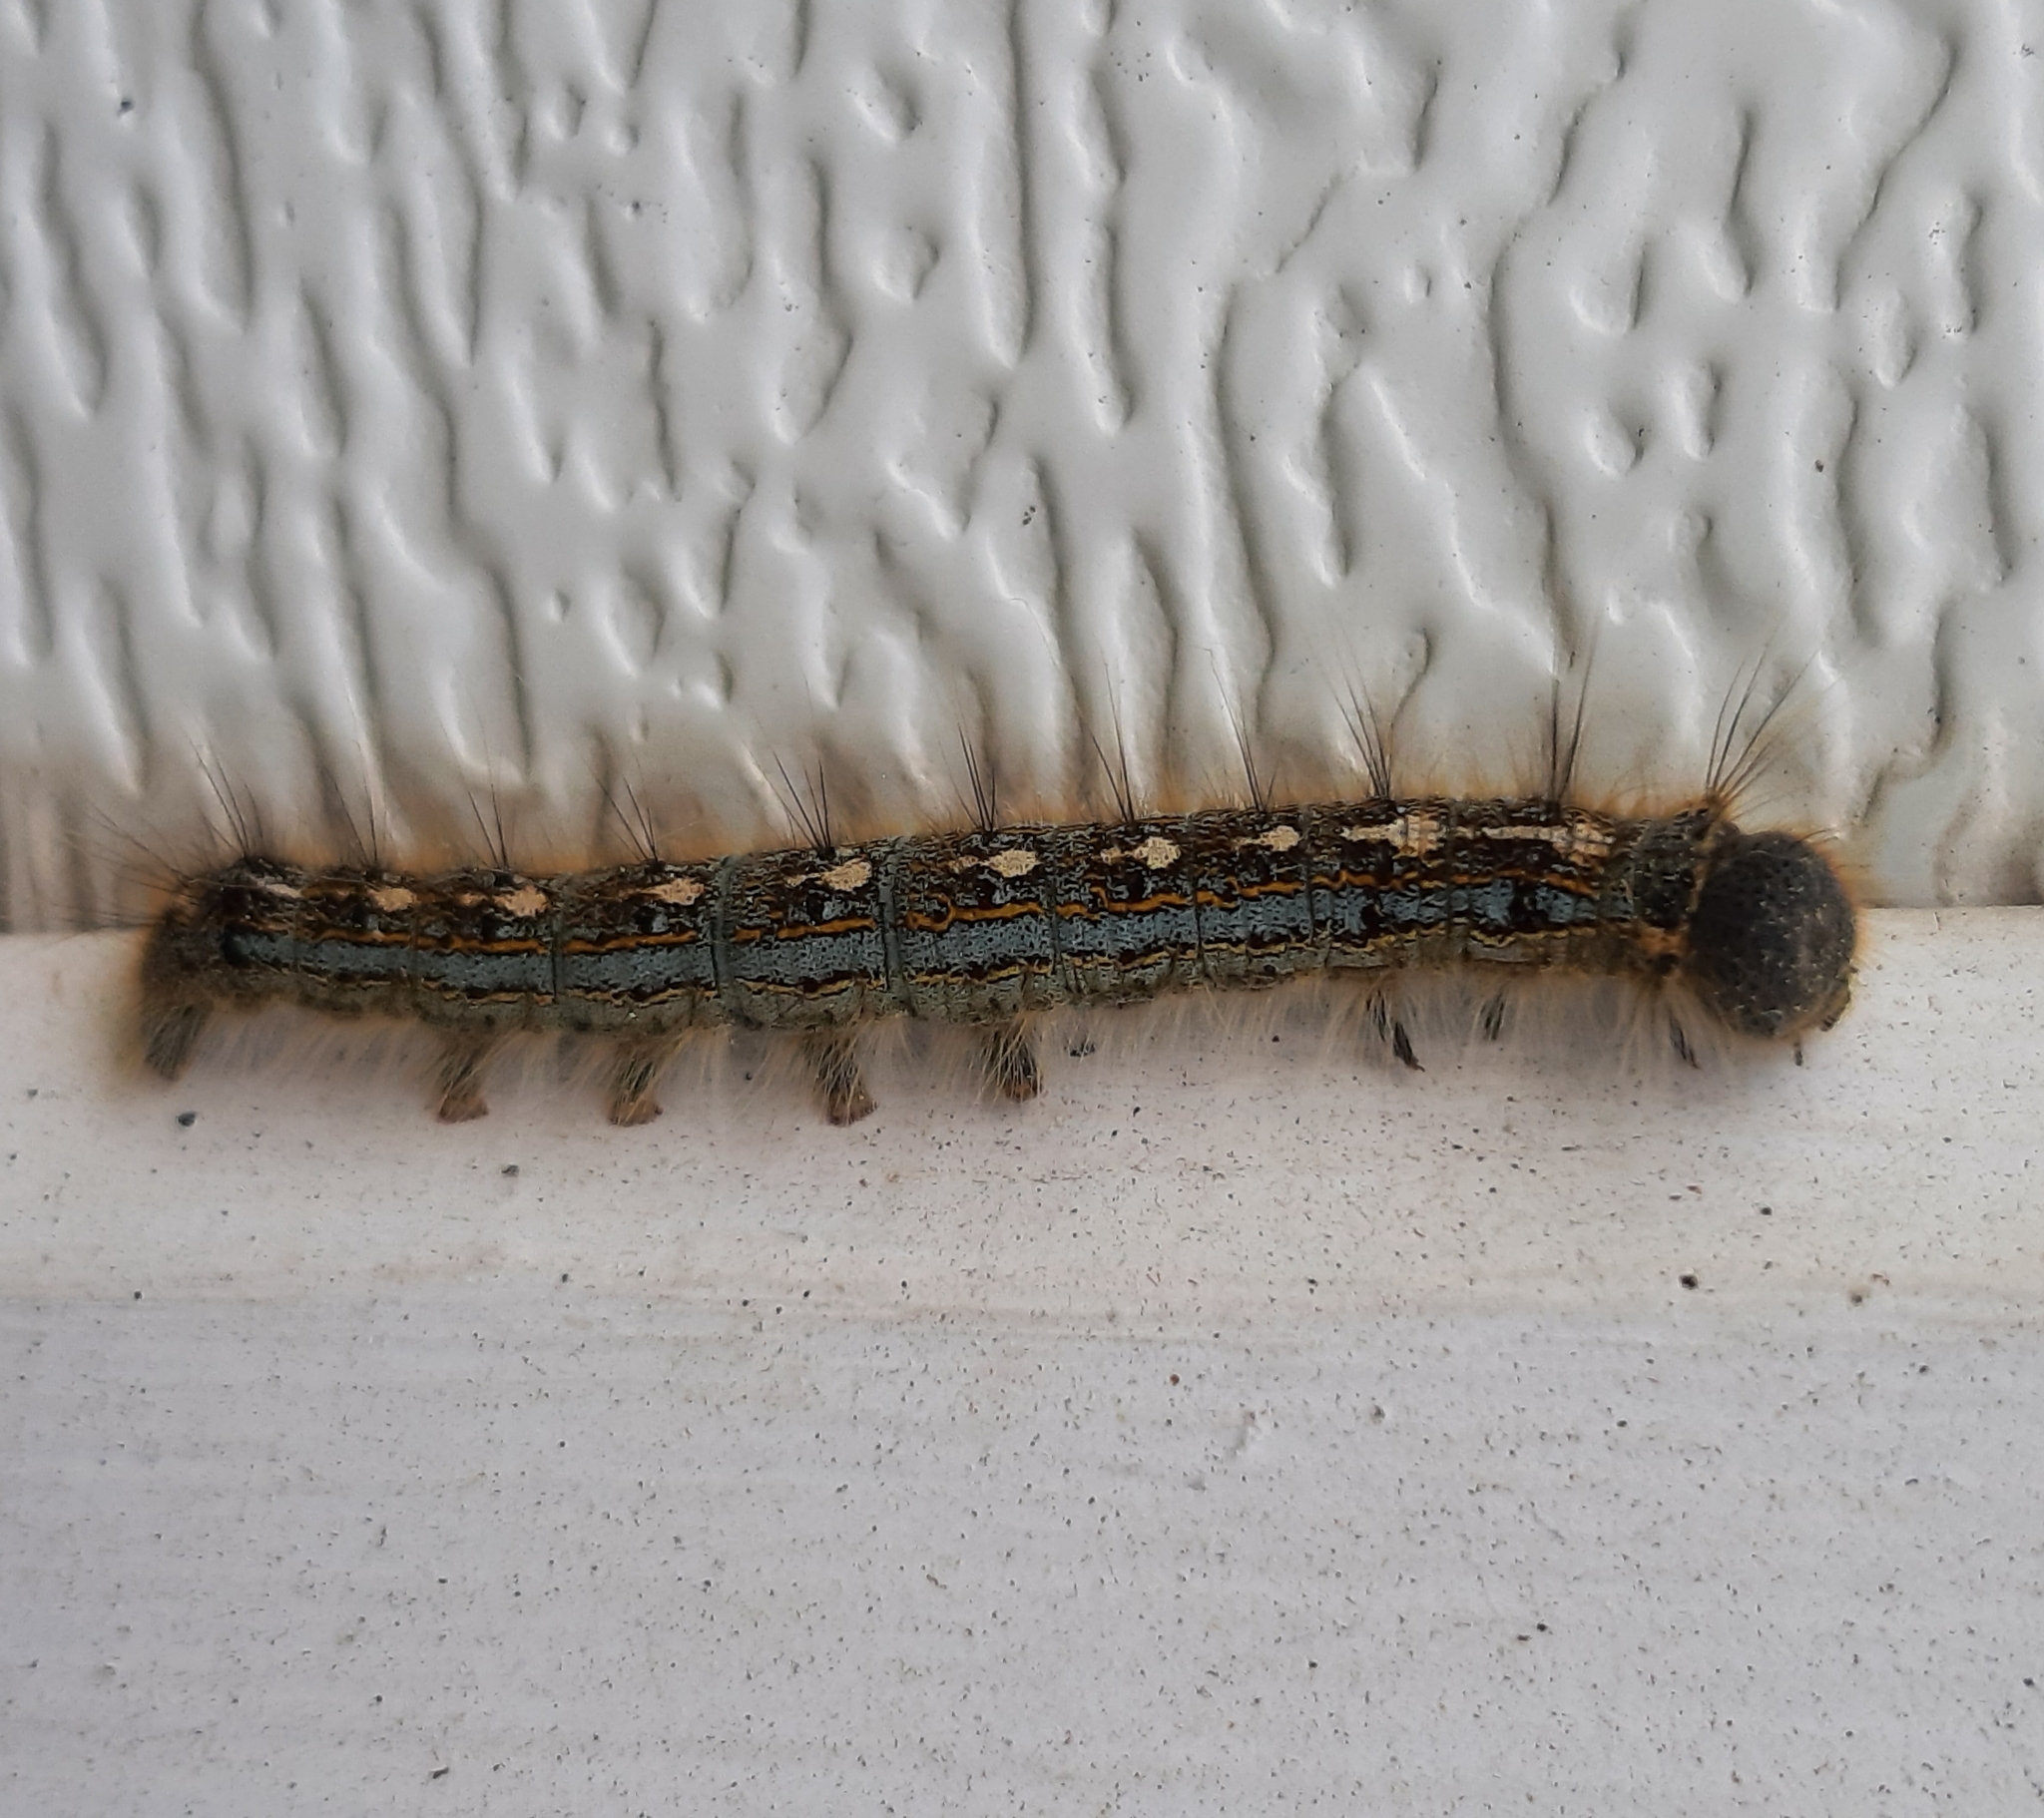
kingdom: Animalia
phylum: Arthropoda
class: Insecta
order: Lepidoptera
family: Lasiocampidae
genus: Malacosoma
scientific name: Malacosoma disstria
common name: Forest tent caterpillar
